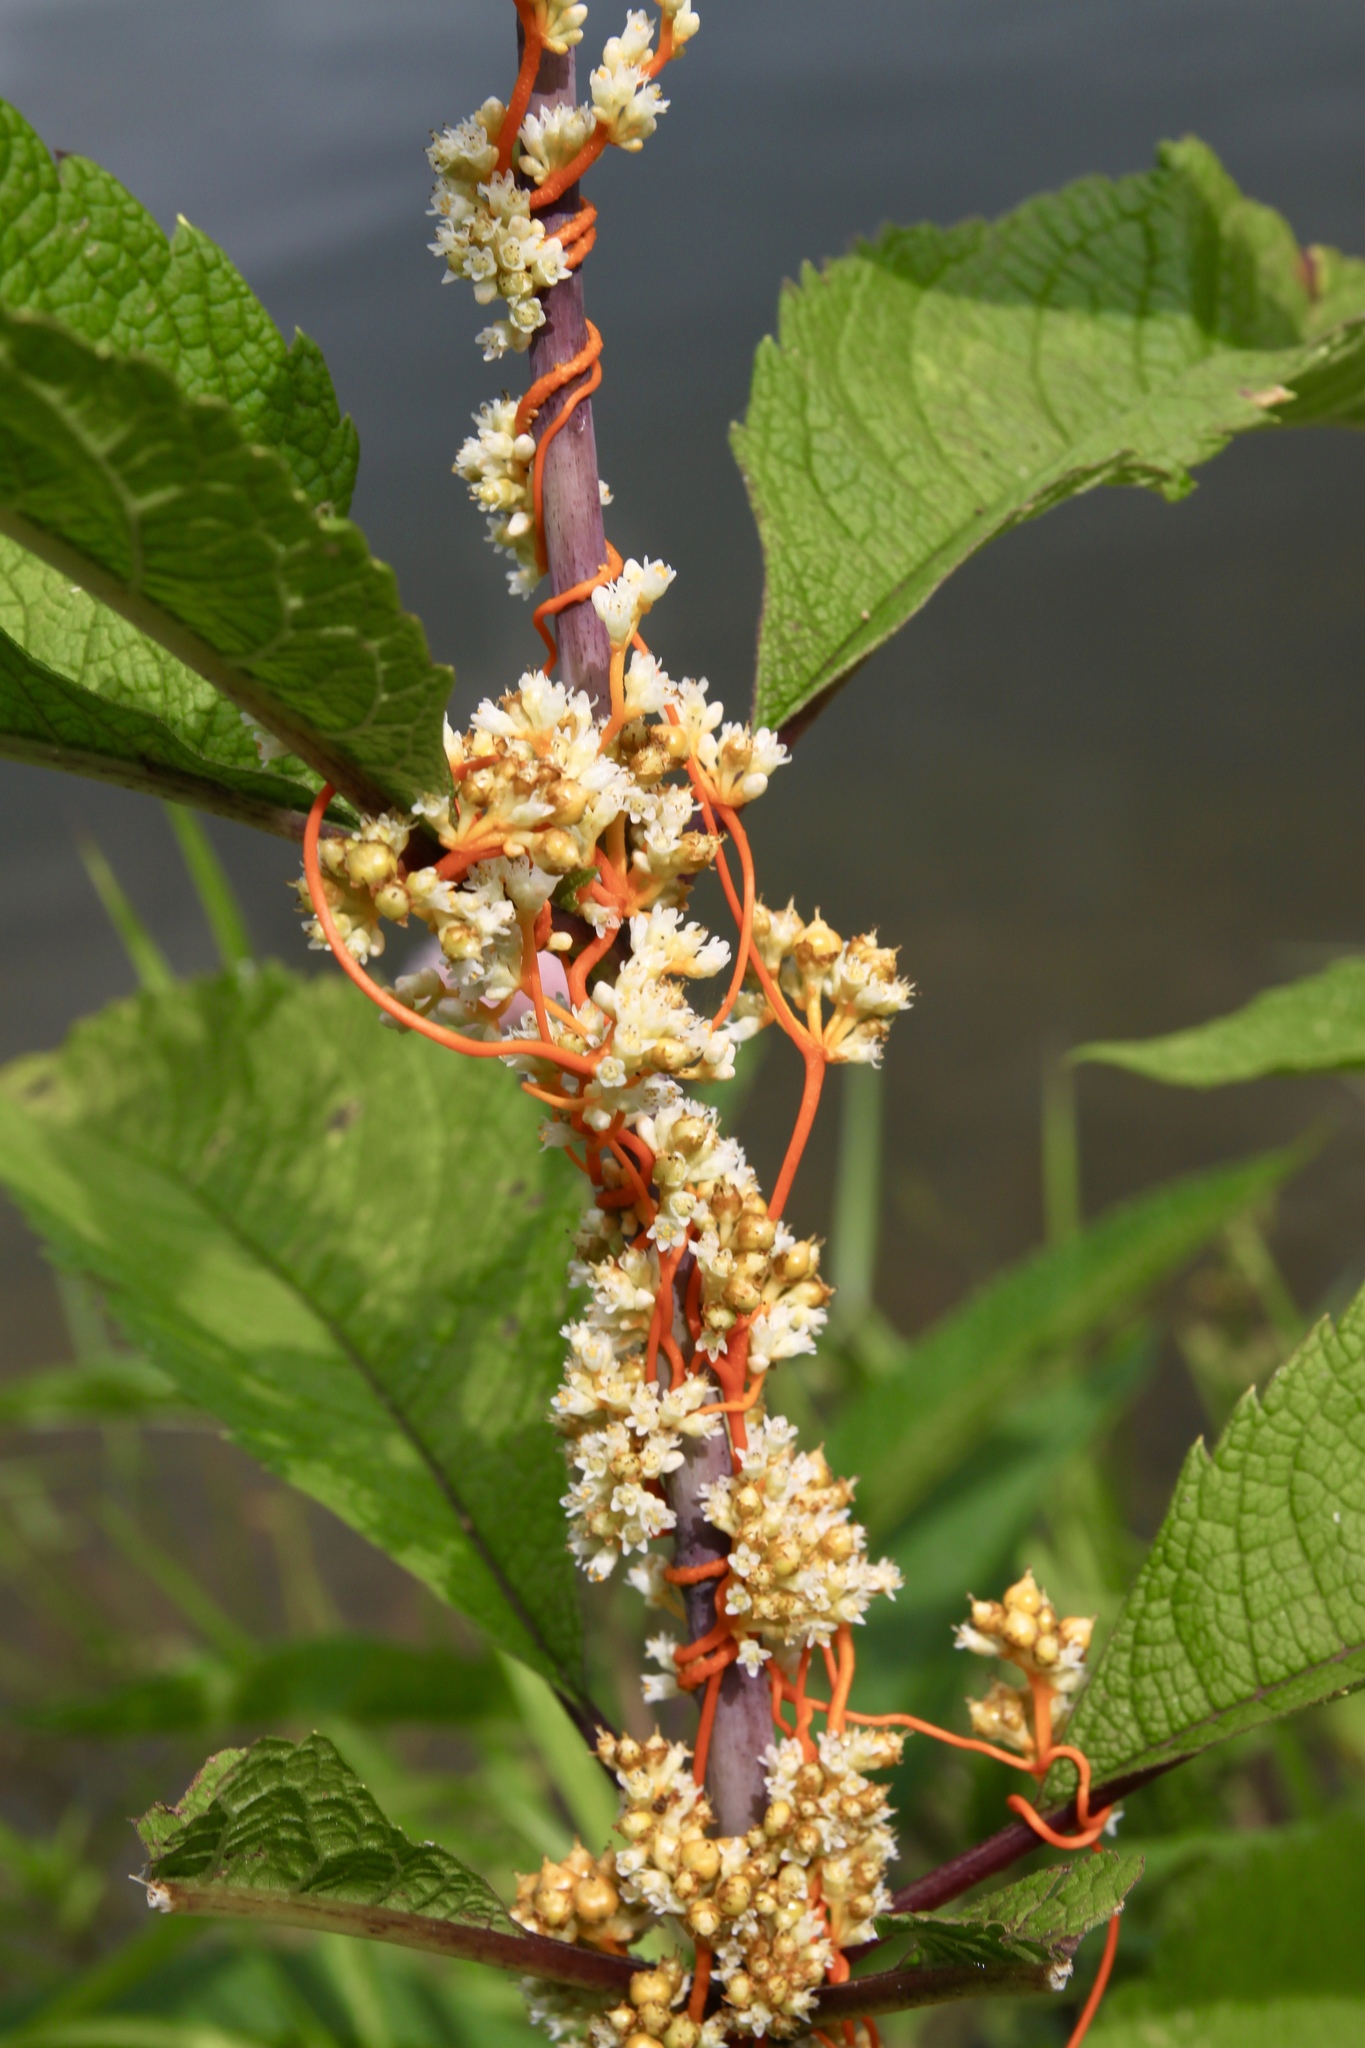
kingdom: Plantae
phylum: Tracheophyta
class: Magnoliopsida
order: Solanales
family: Convolvulaceae
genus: Cuscuta
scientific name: Cuscuta gronovii
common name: Common dodder
